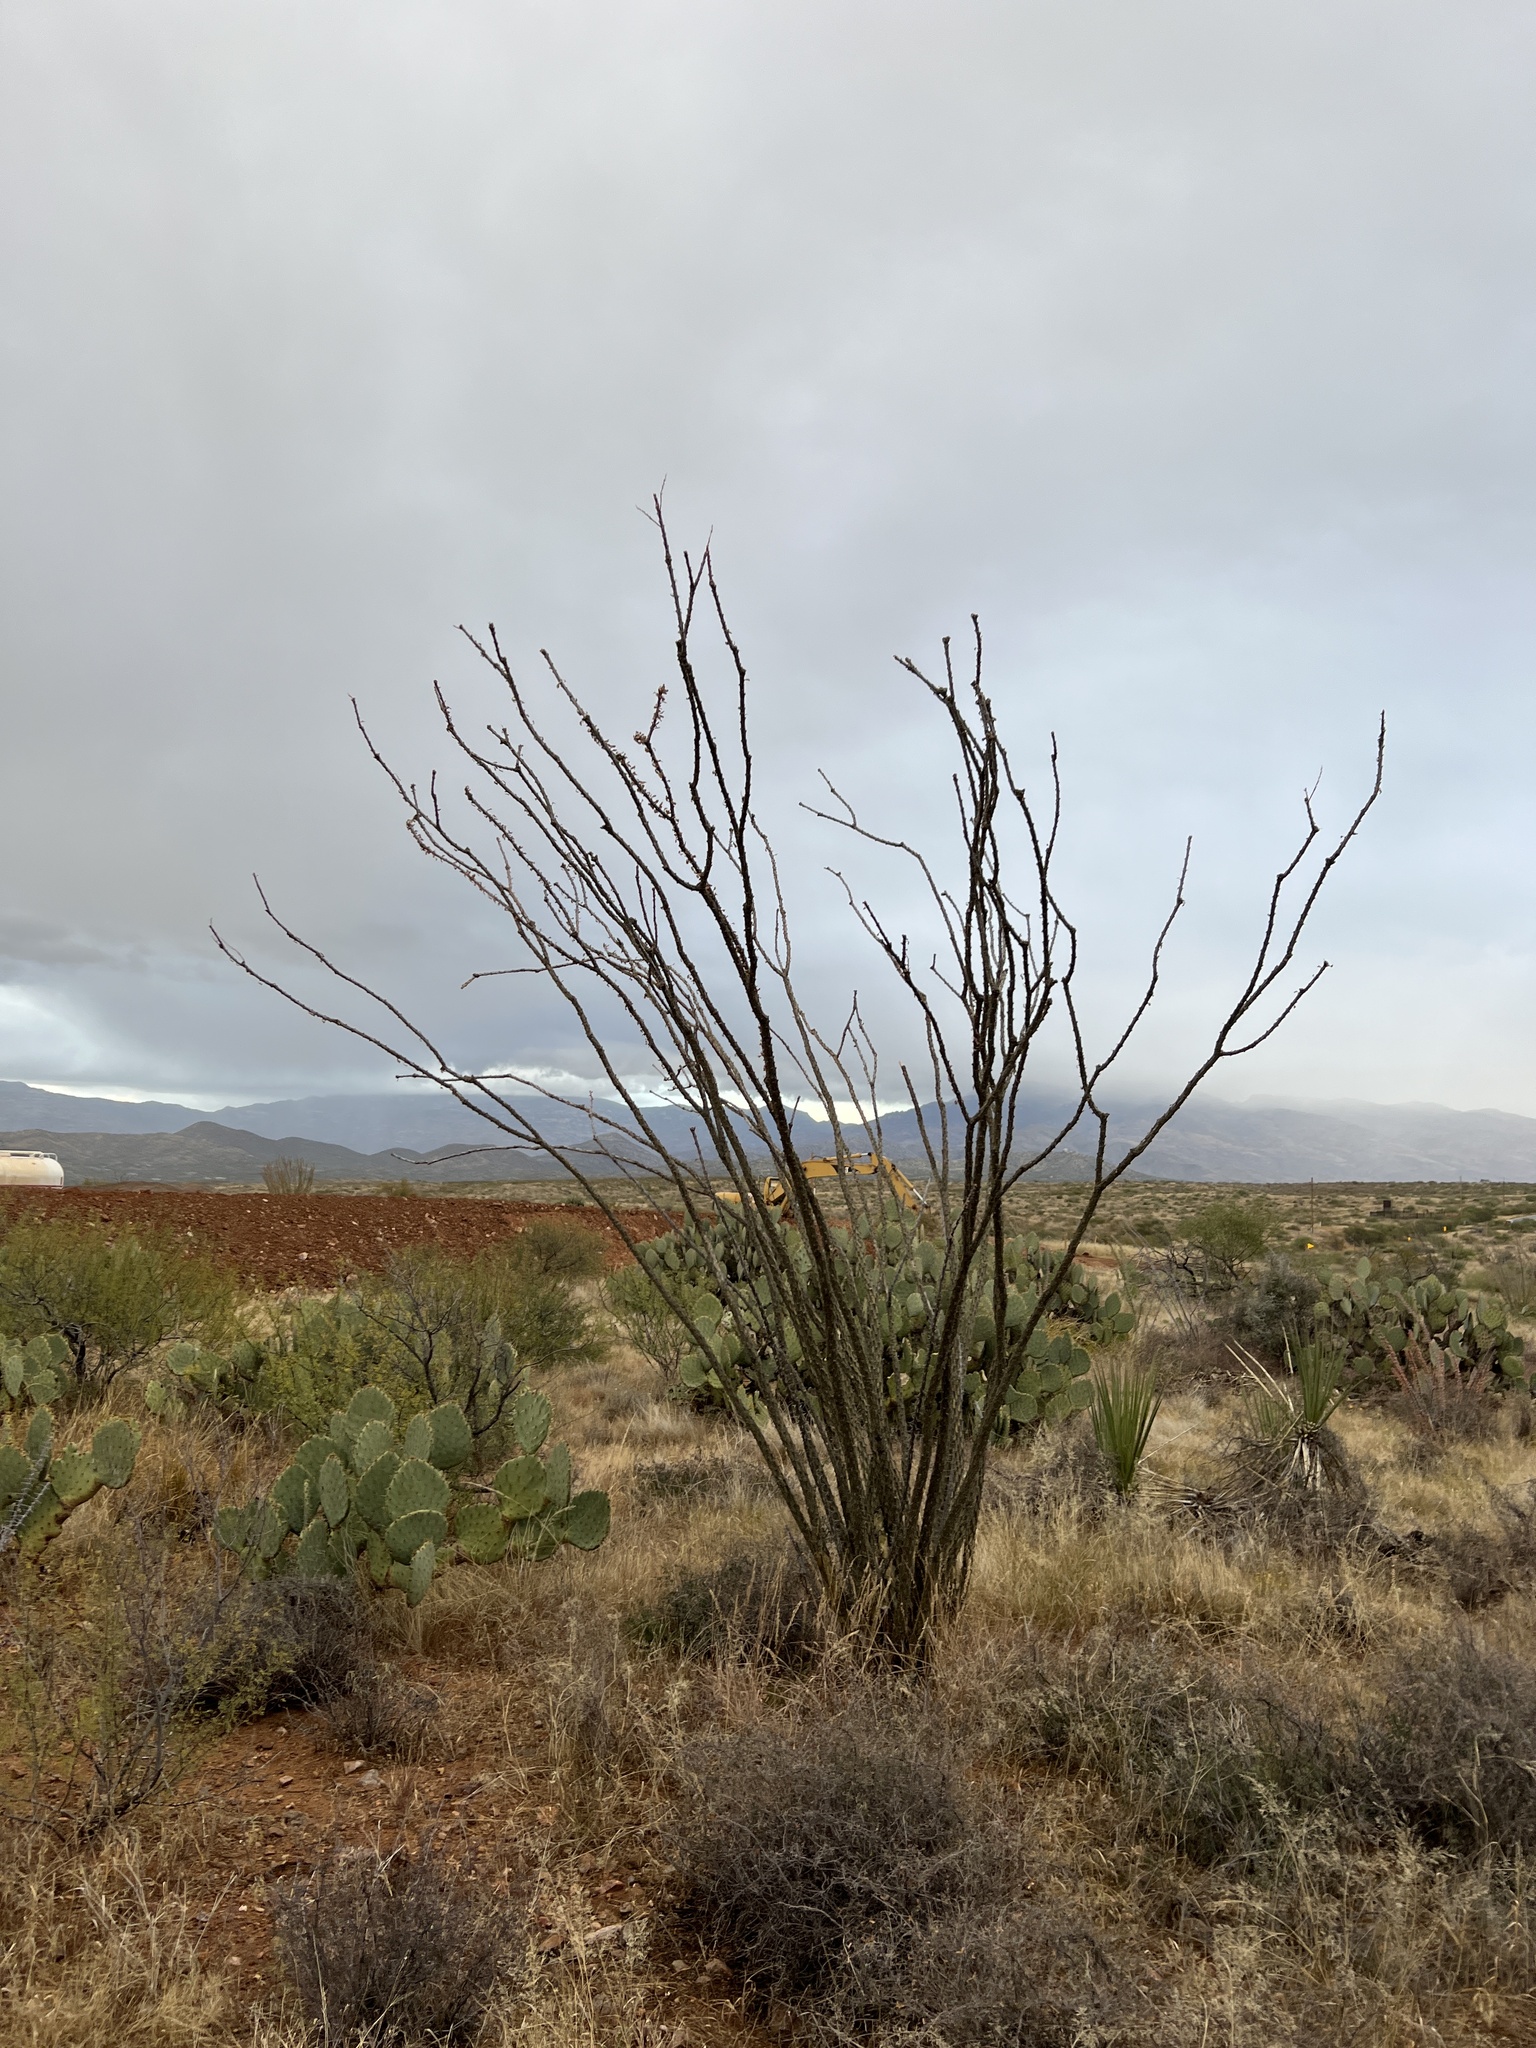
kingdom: Plantae
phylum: Tracheophyta
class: Magnoliopsida
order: Ericales
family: Fouquieriaceae
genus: Fouquieria
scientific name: Fouquieria splendens
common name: Vine-cactus
